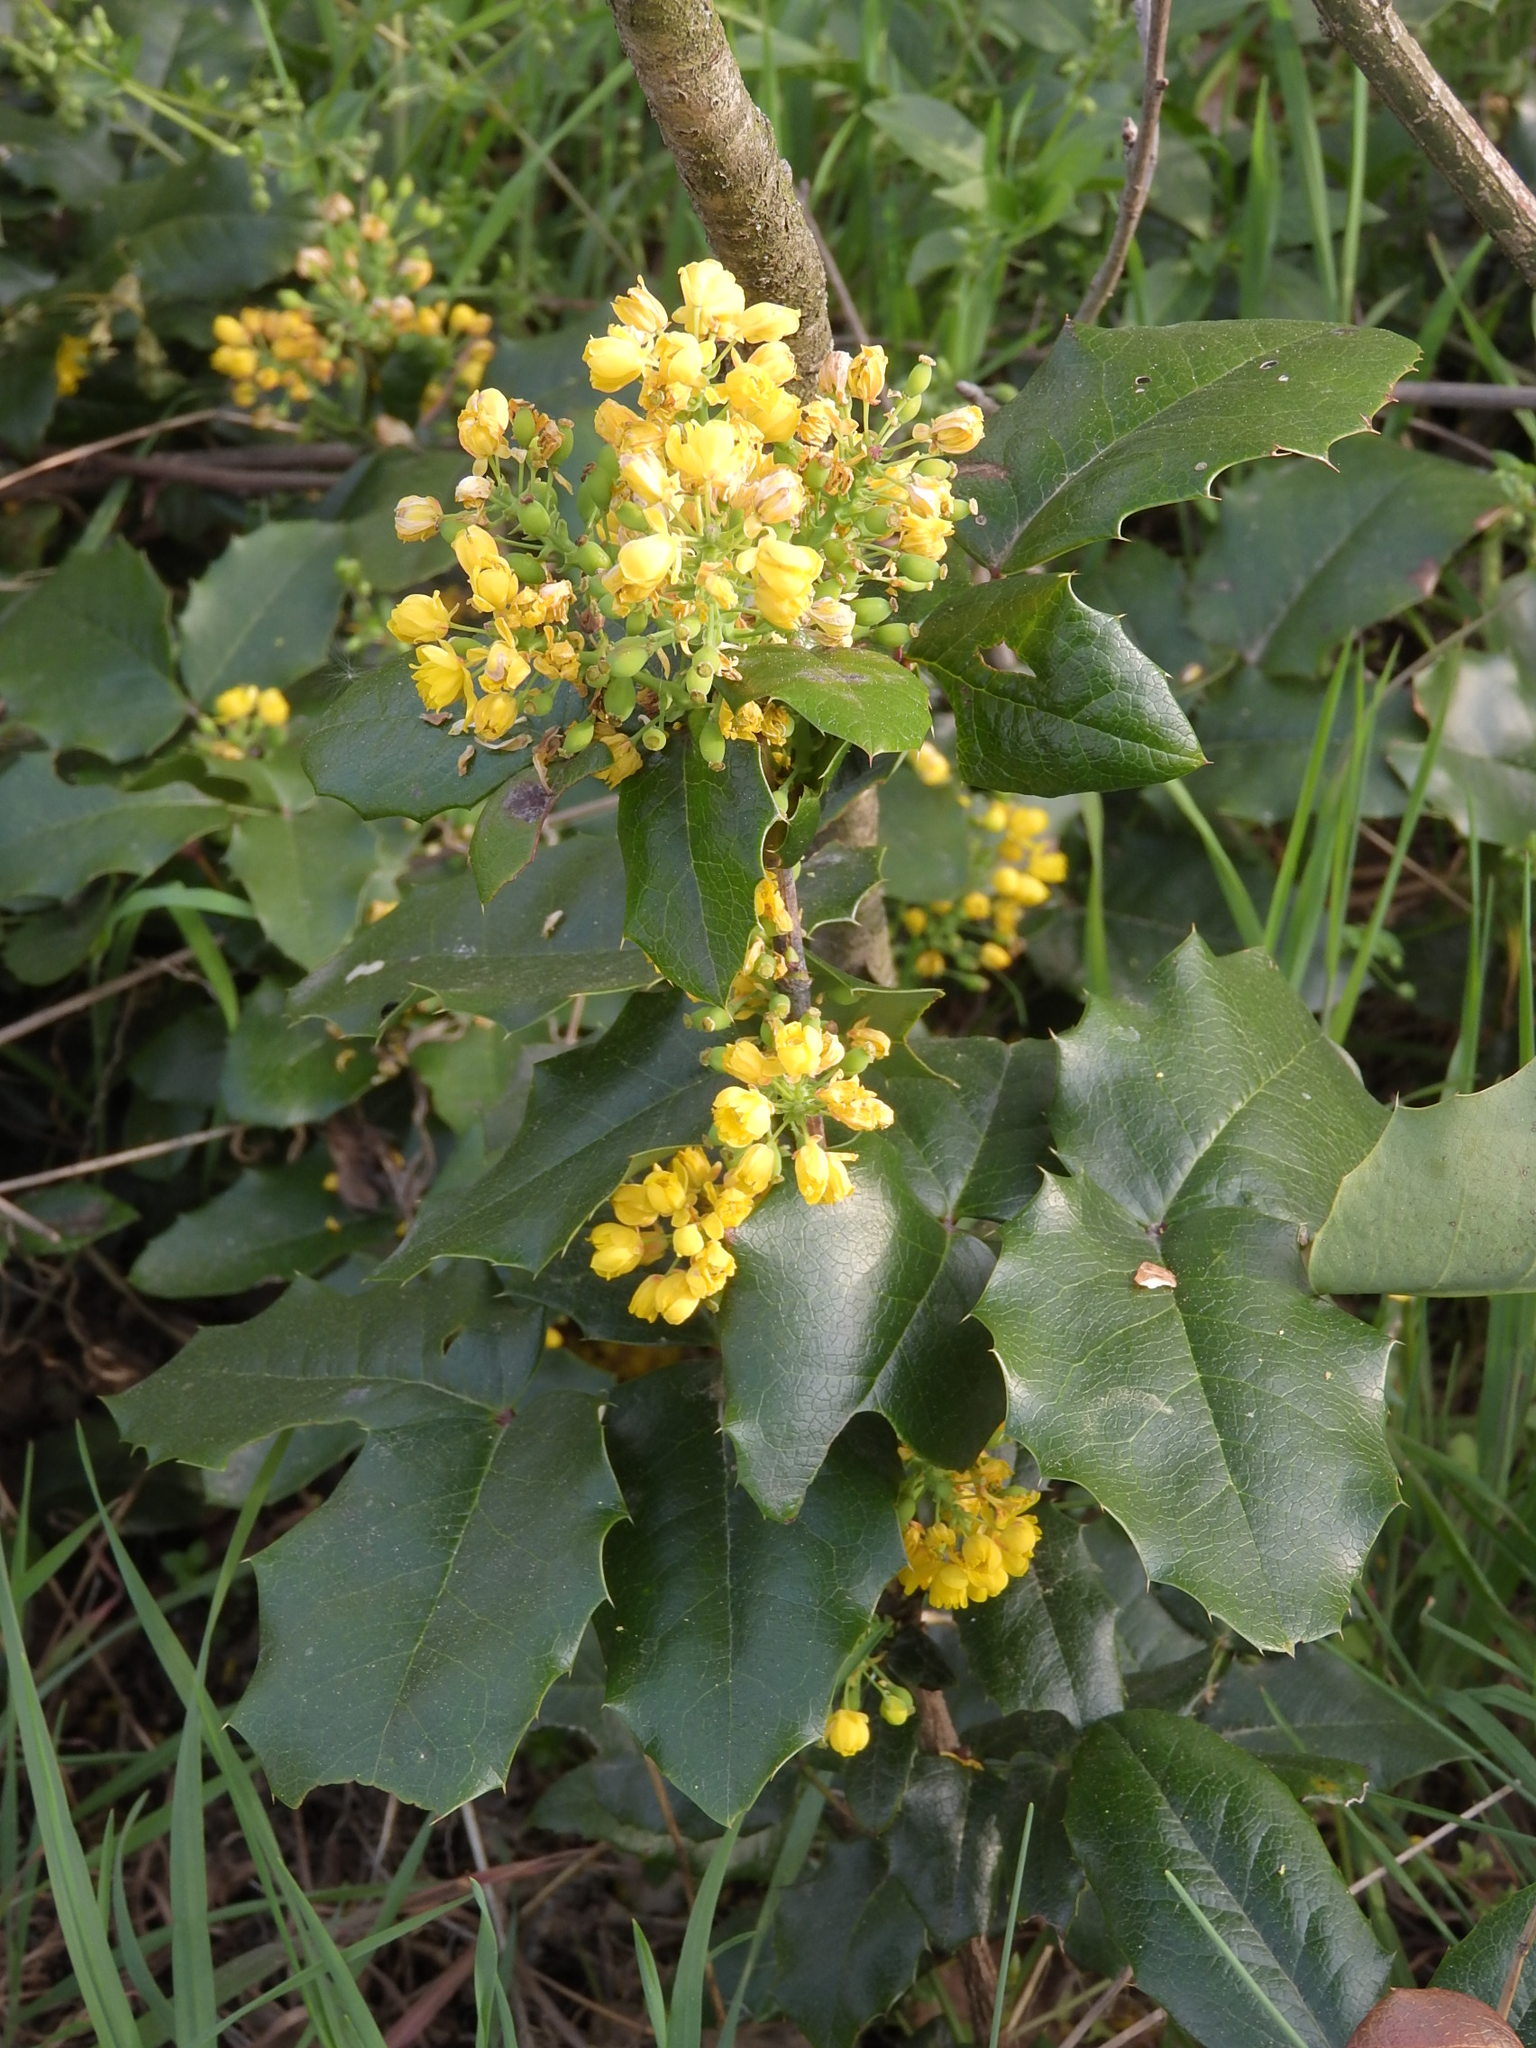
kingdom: Plantae
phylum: Tracheophyta
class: Magnoliopsida
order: Ranunculales
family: Berberidaceae
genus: Mahonia
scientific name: Mahonia aquifolium
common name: Oregon-grape
